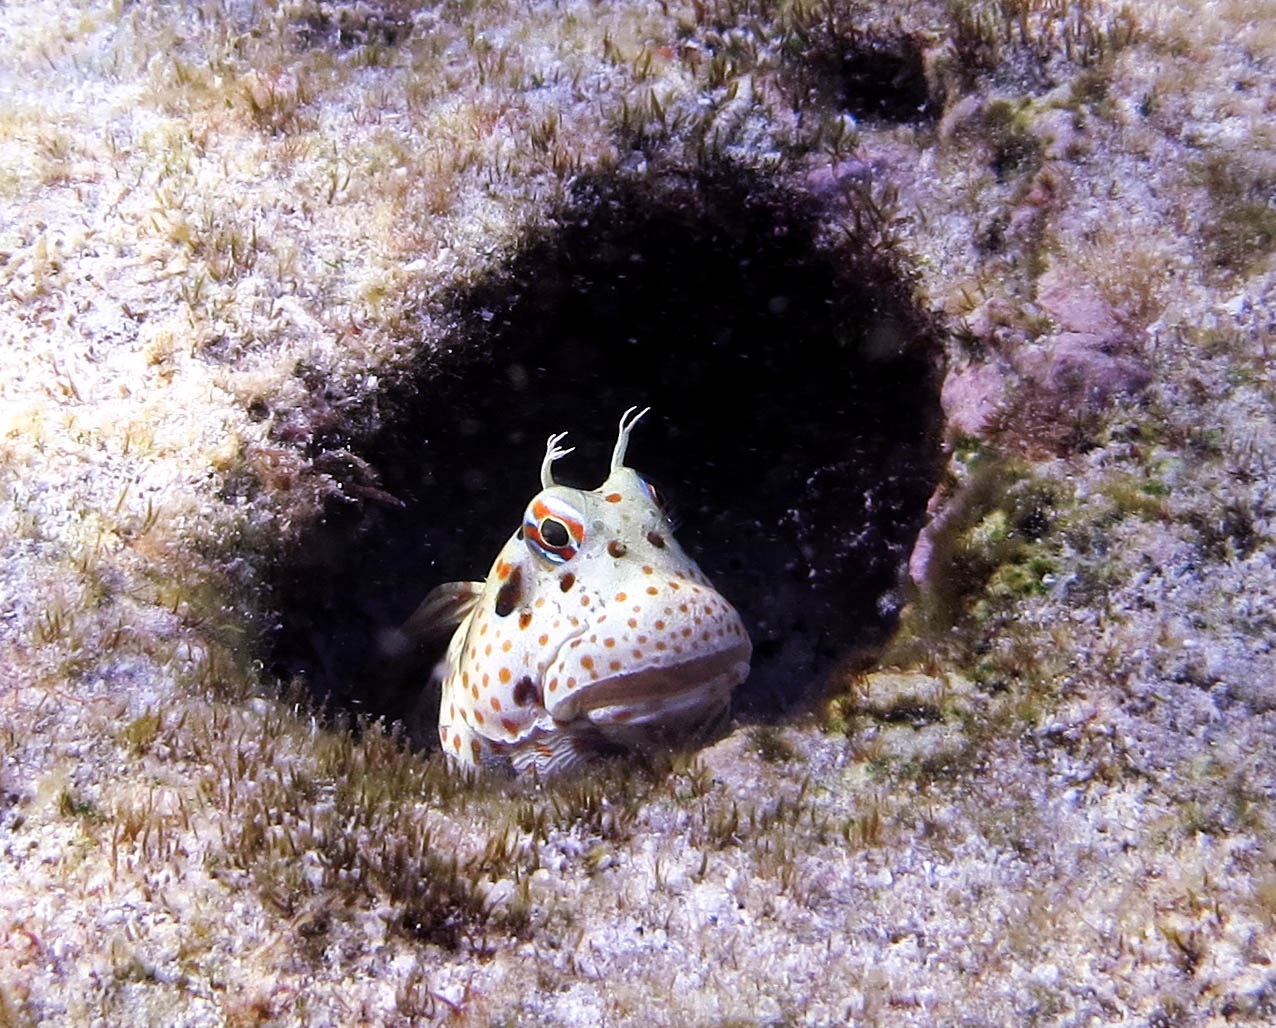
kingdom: Animalia
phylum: Chordata
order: Perciformes
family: Blenniidae
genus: Blenniella
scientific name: Blenniella chrysospilos
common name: Orange-spotted blenny
